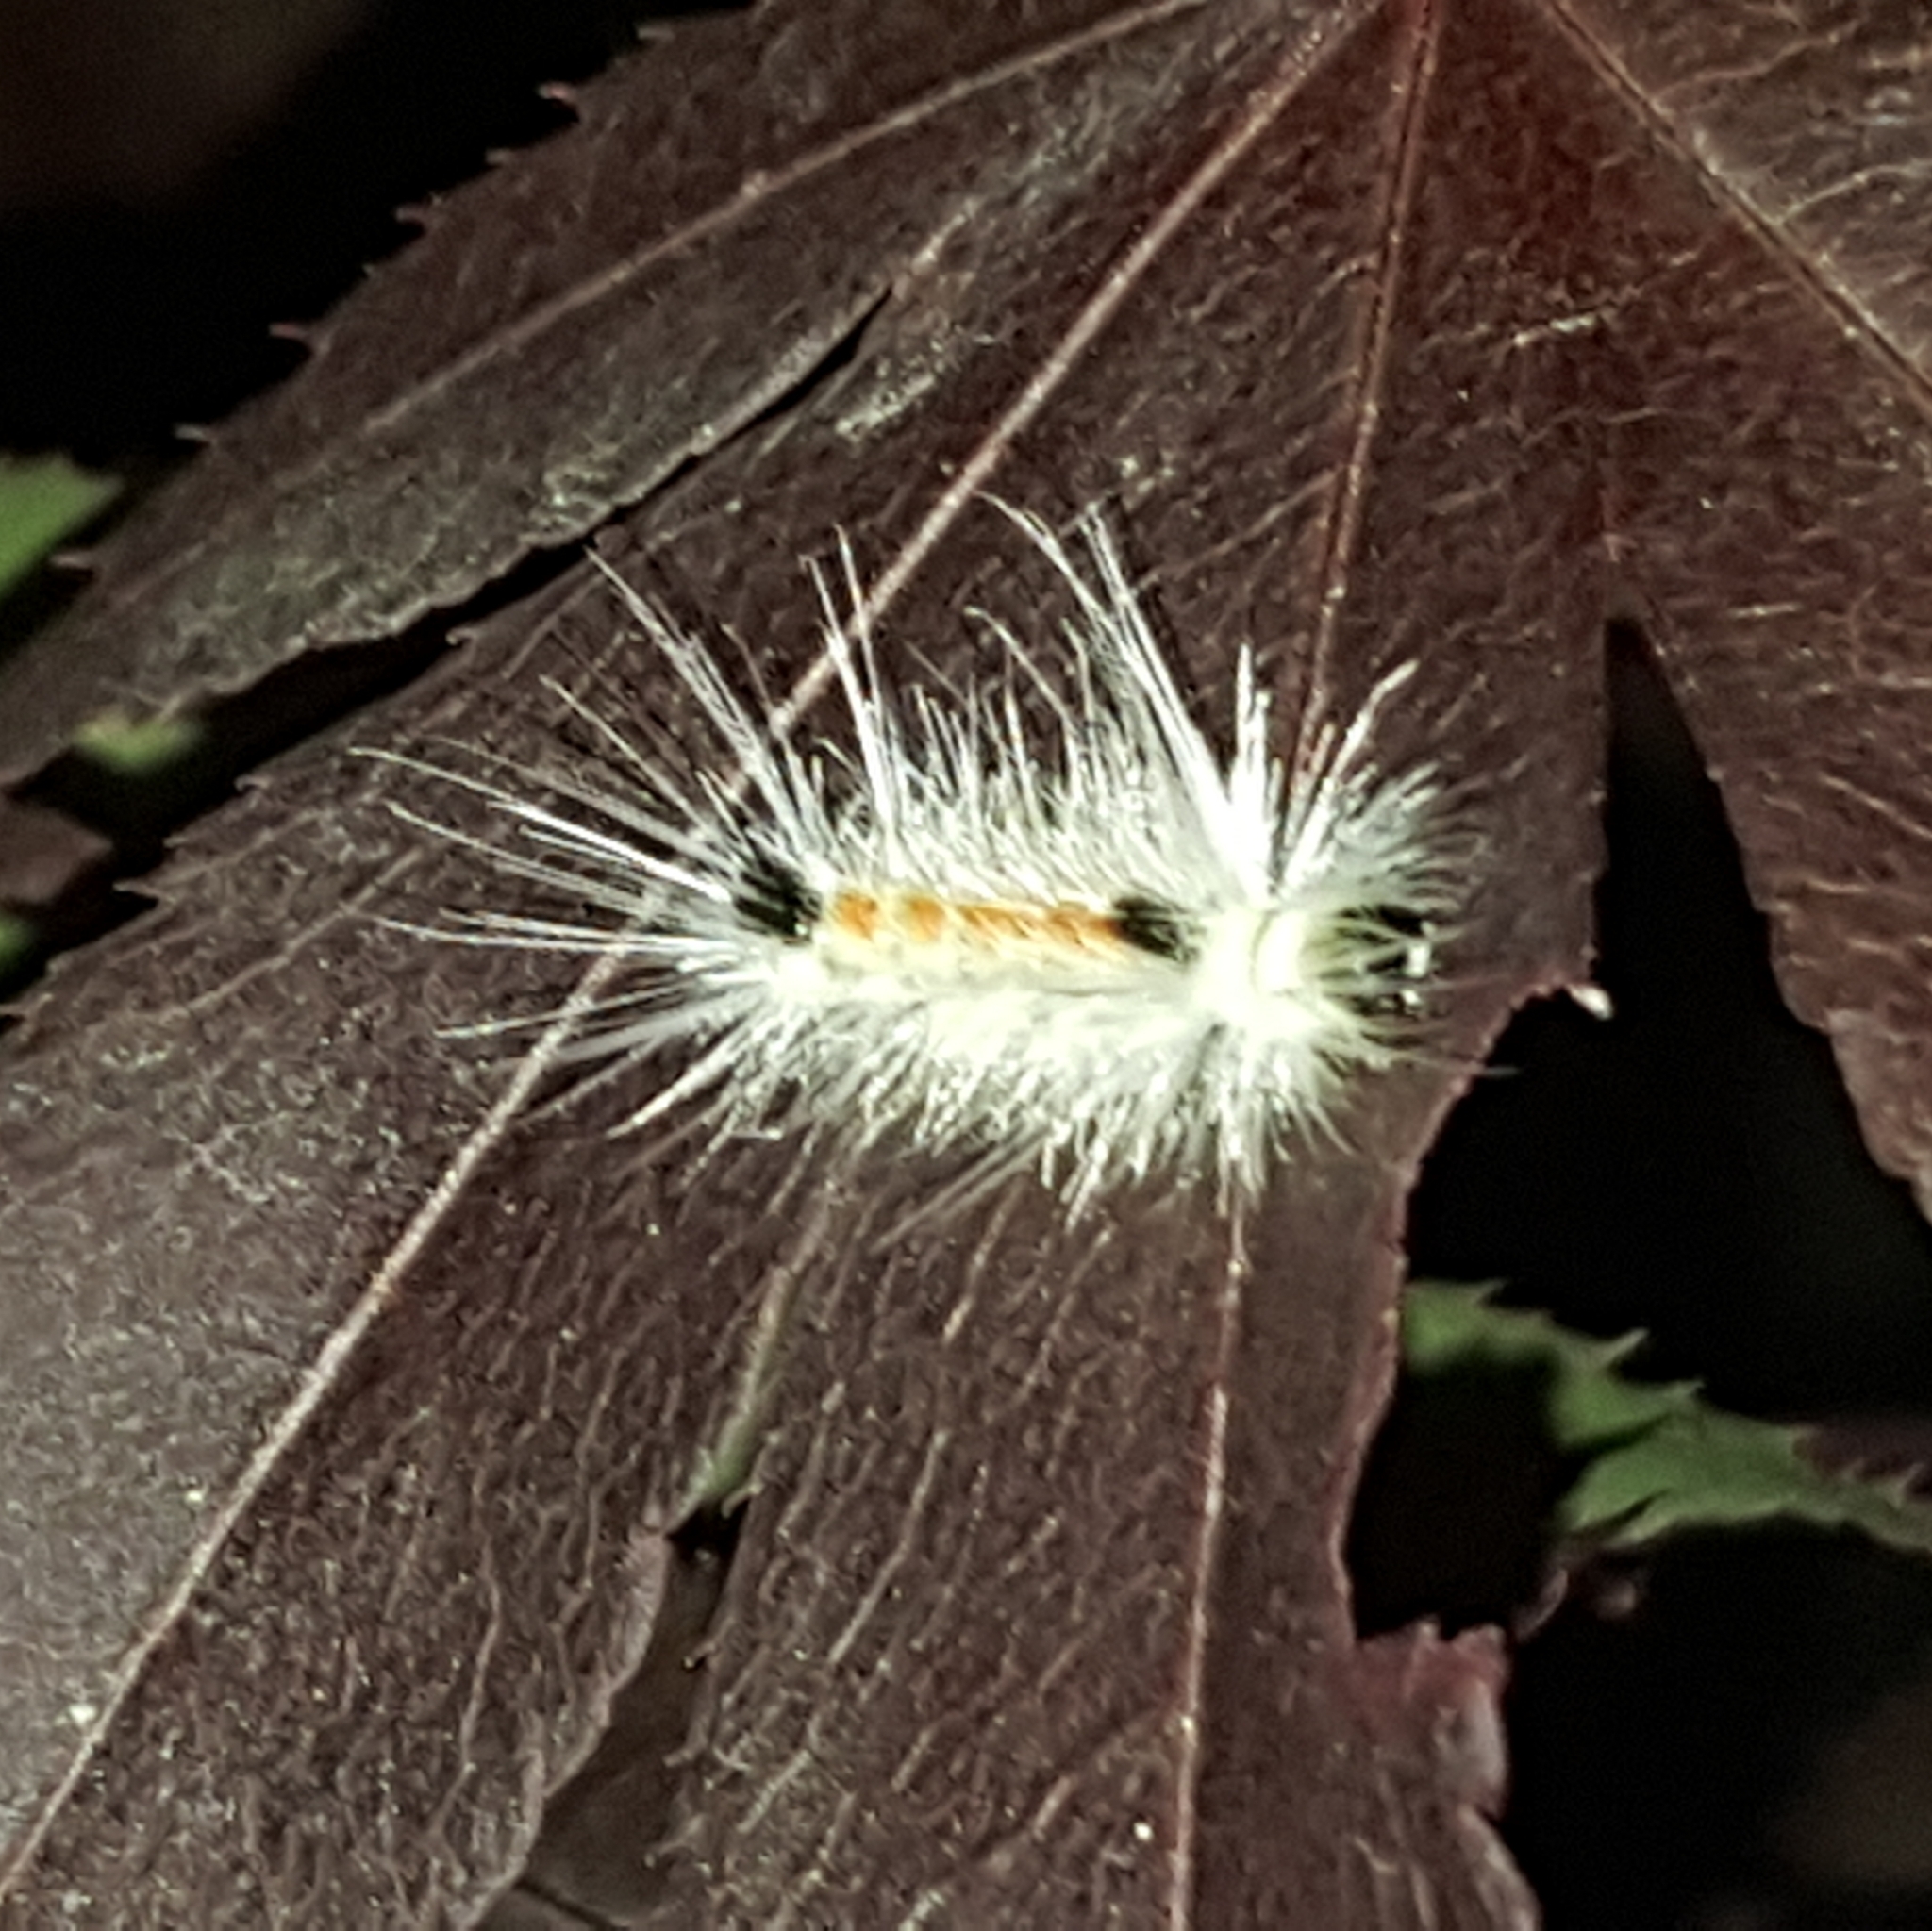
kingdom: Animalia
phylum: Arthropoda
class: Insecta
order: Lepidoptera
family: Erebidae
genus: Lophocampa
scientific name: Lophocampa maculata
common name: Spotted tussock moth
